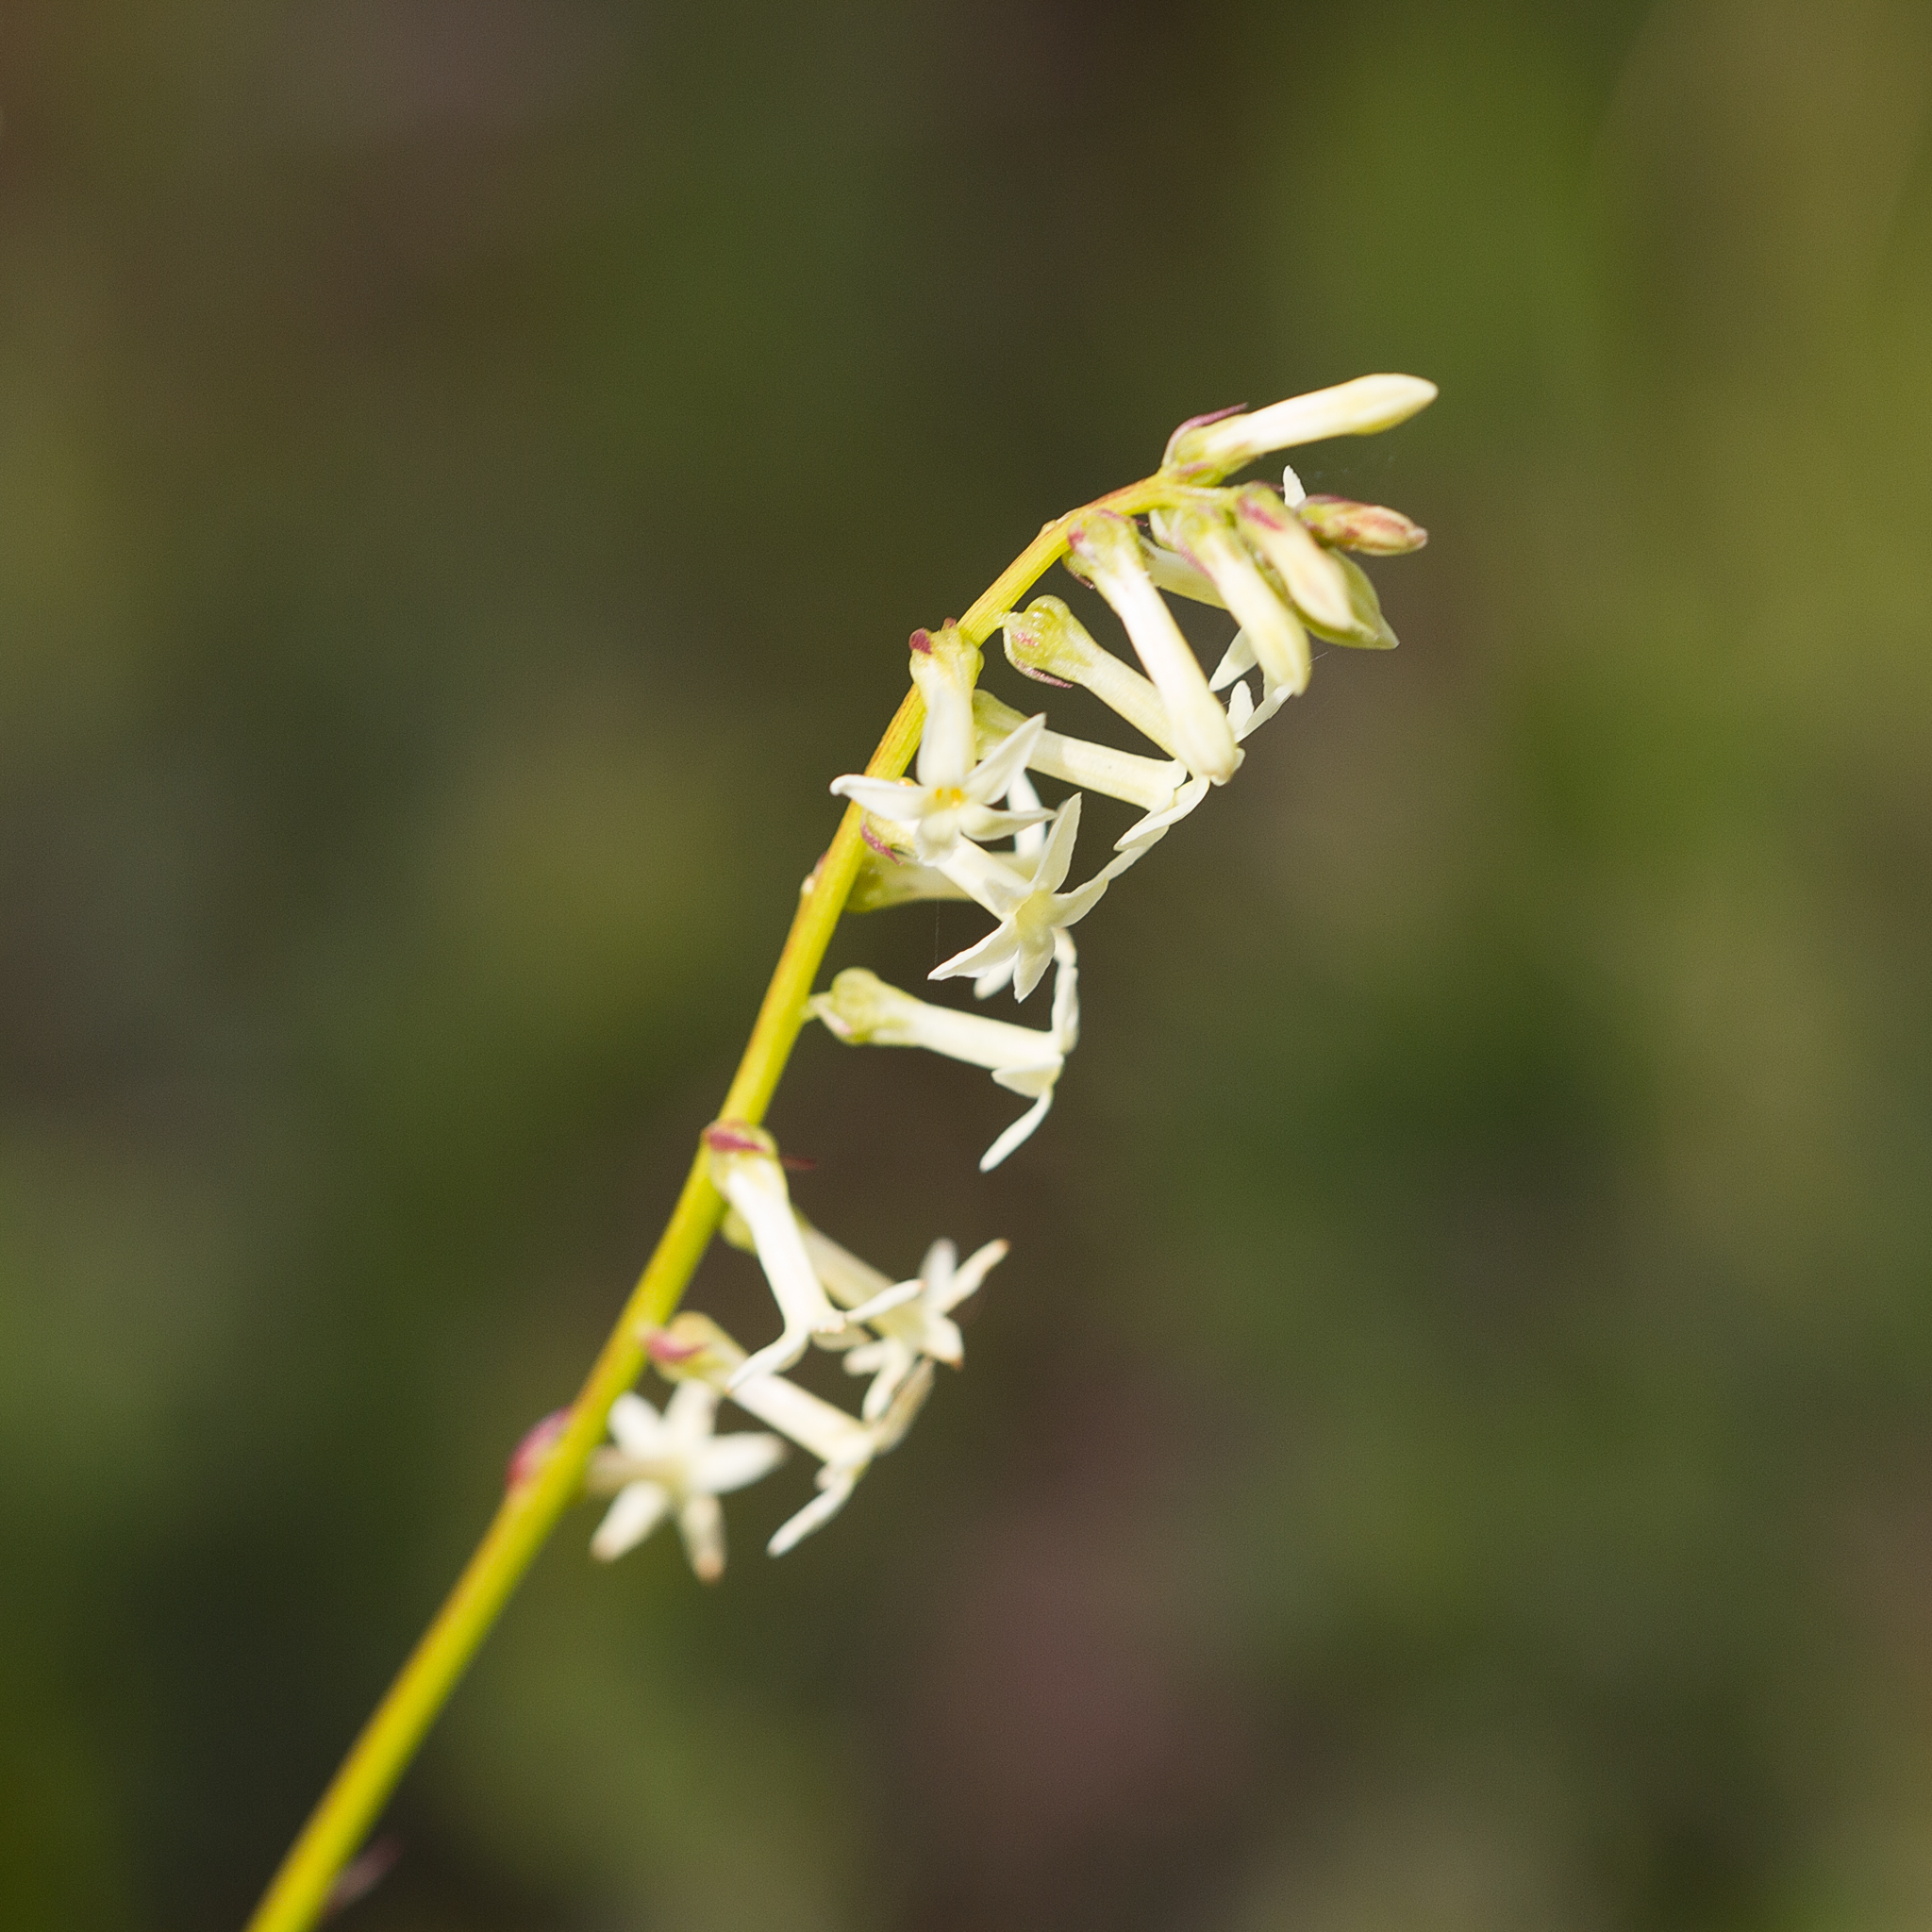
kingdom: Plantae
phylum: Tracheophyta
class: Magnoliopsida
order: Celastrales
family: Celastraceae
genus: Stackhousia
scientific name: Stackhousia monogyna
